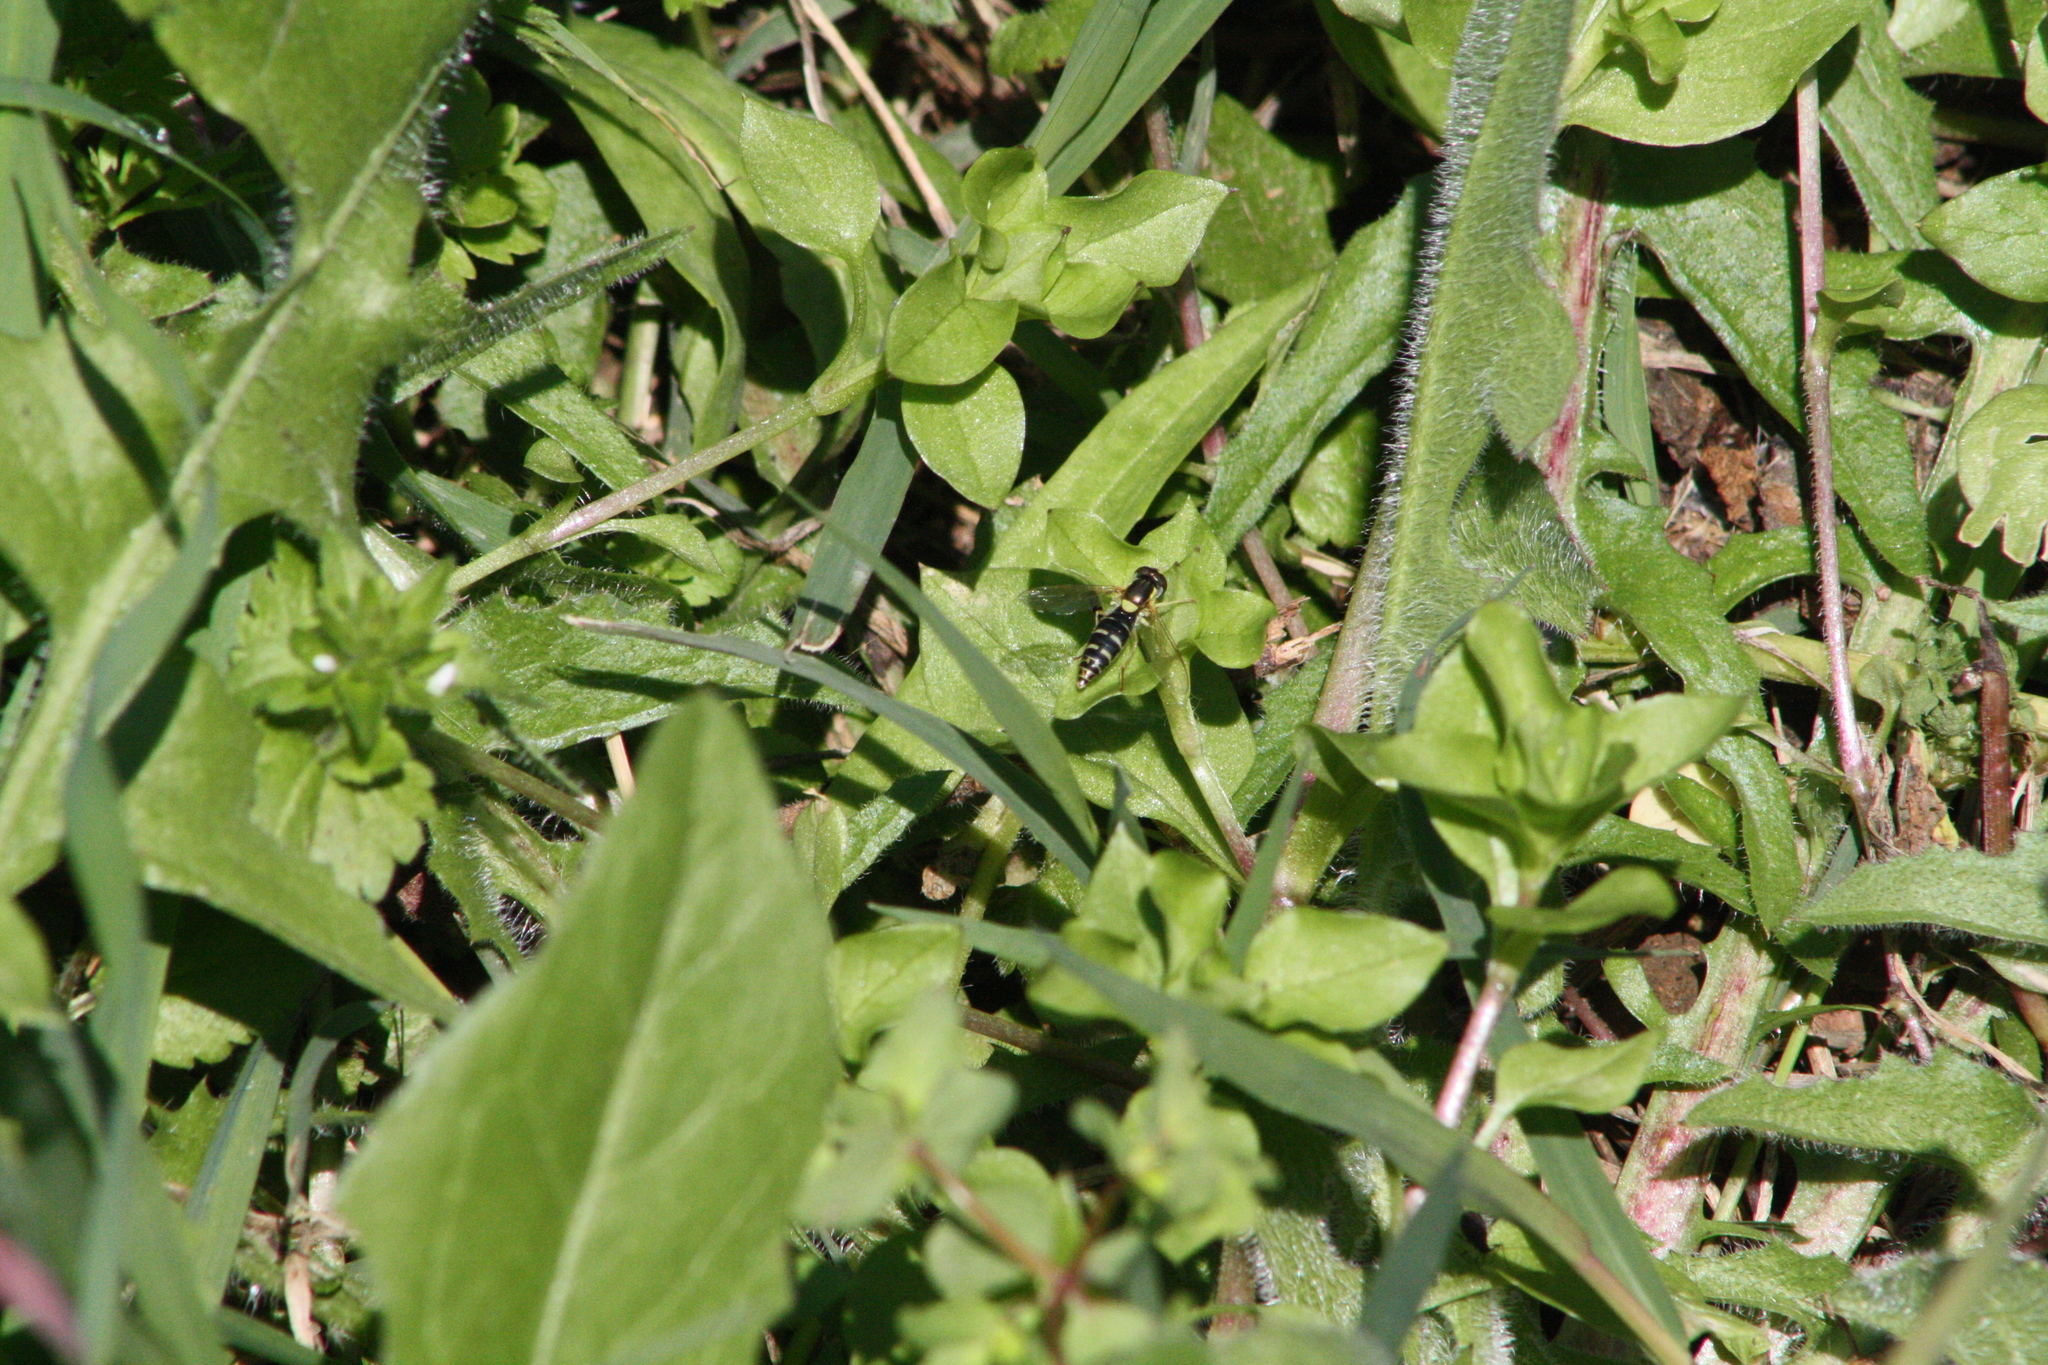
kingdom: Animalia
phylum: Arthropoda
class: Insecta
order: Diptera
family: Syrphidae
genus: Sphaerophoria
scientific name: Sphaerophoria
